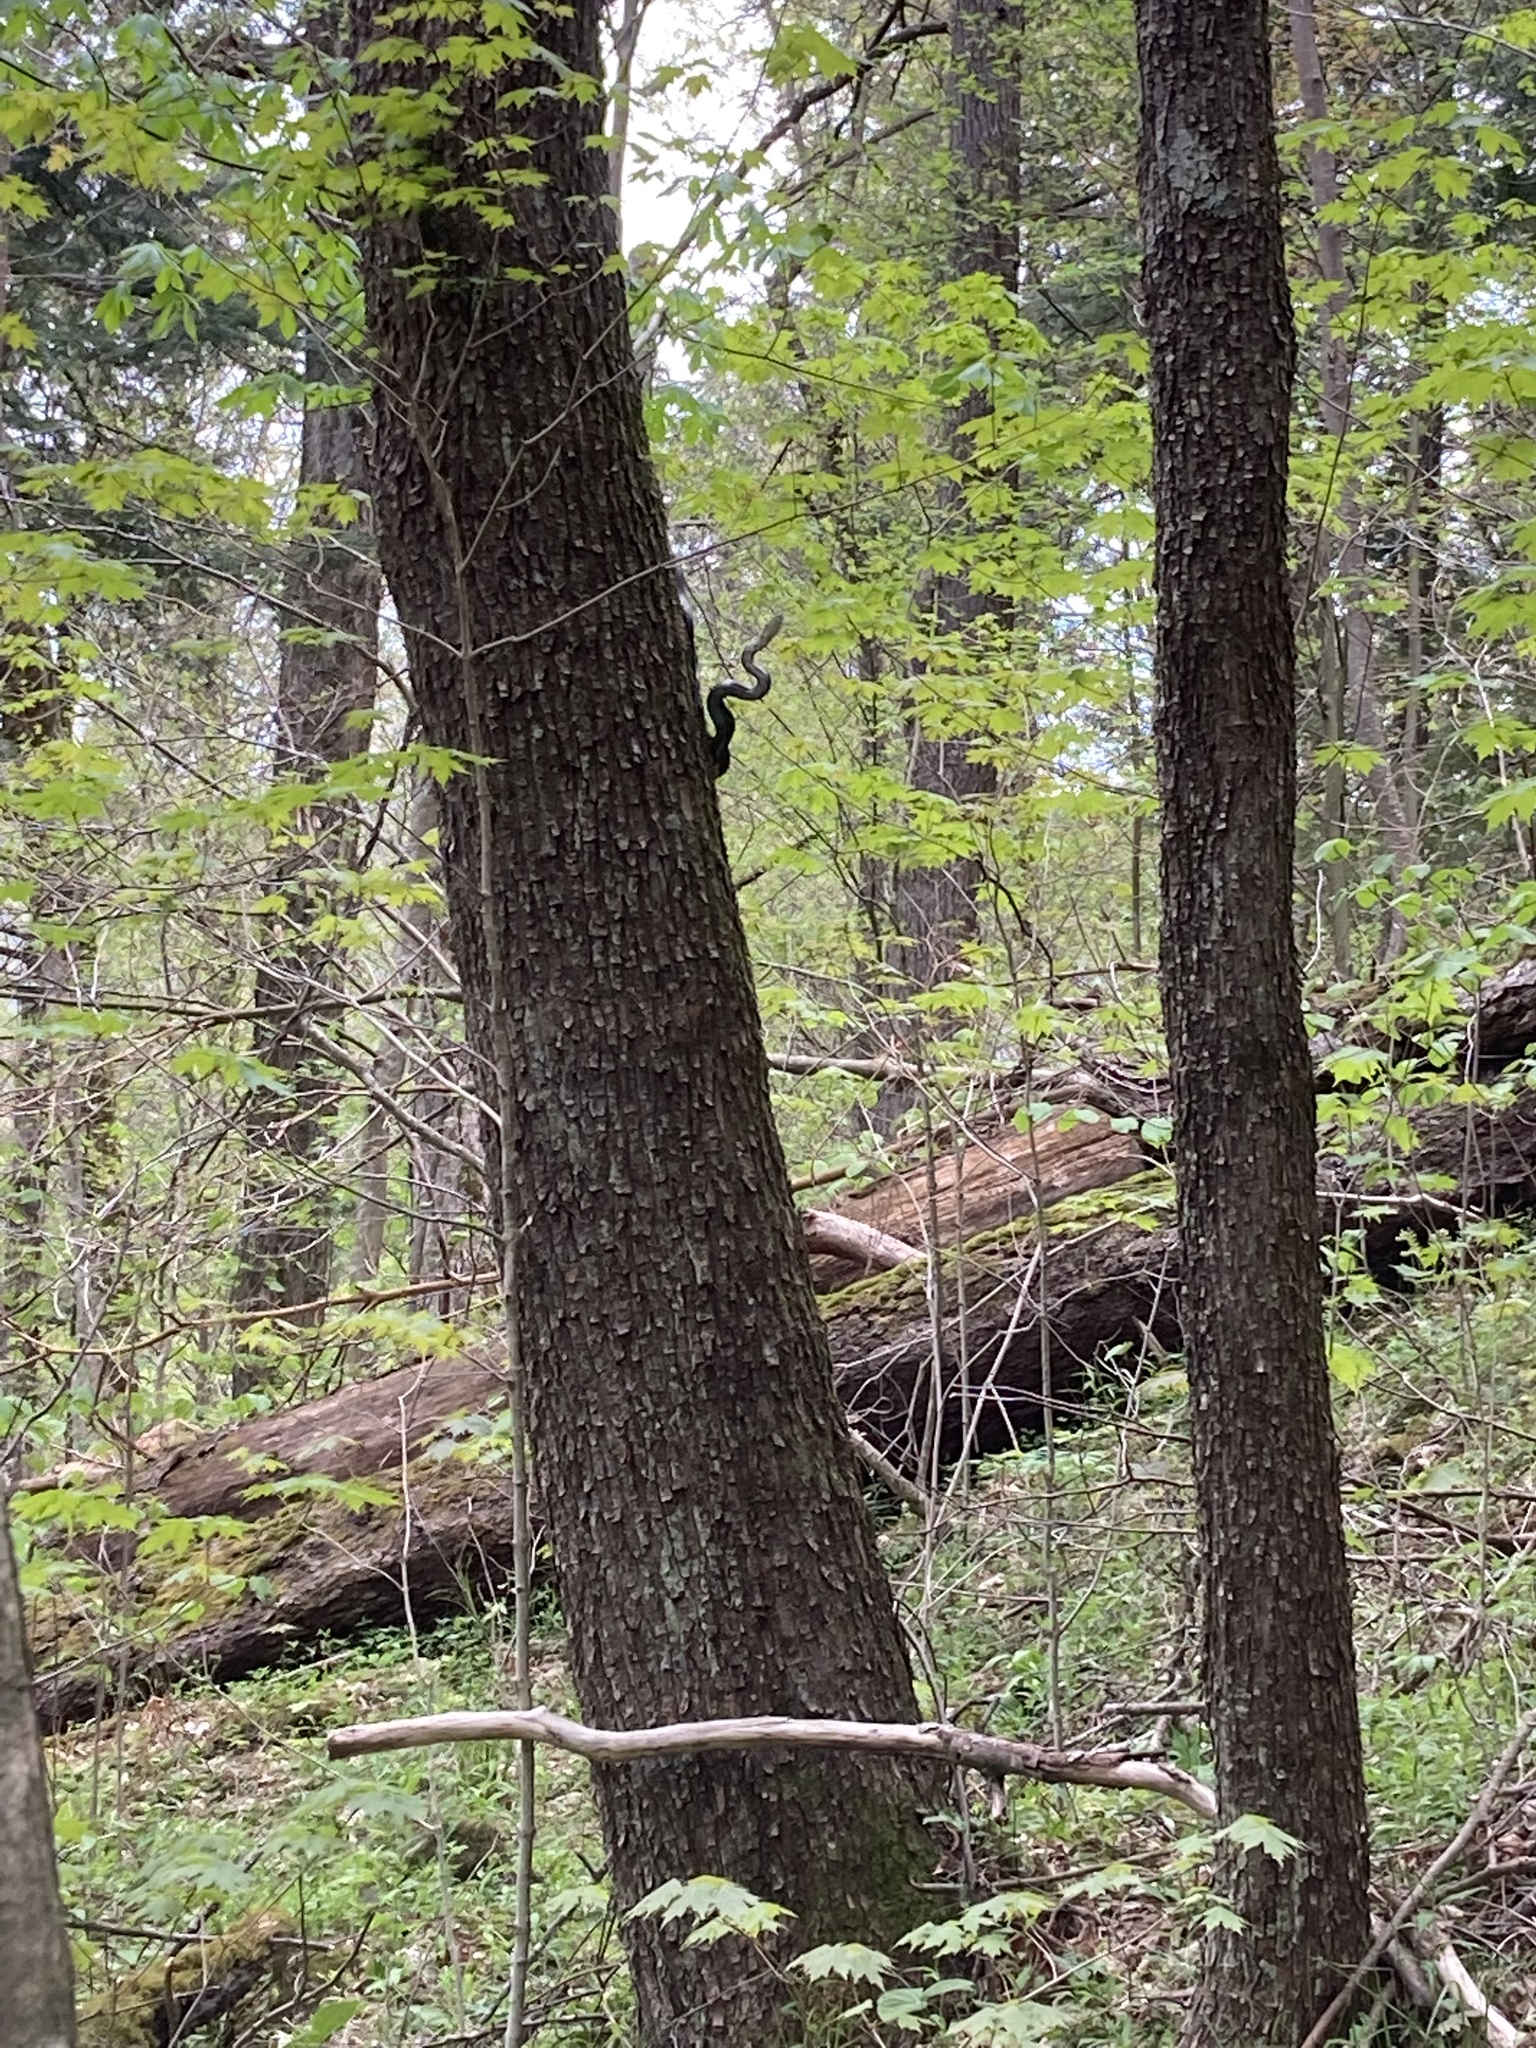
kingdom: Animalia
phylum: Chordata
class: Squamata
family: Colubridae
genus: Pantherophis
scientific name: Pantherophis spiloides
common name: Gray rat snake
